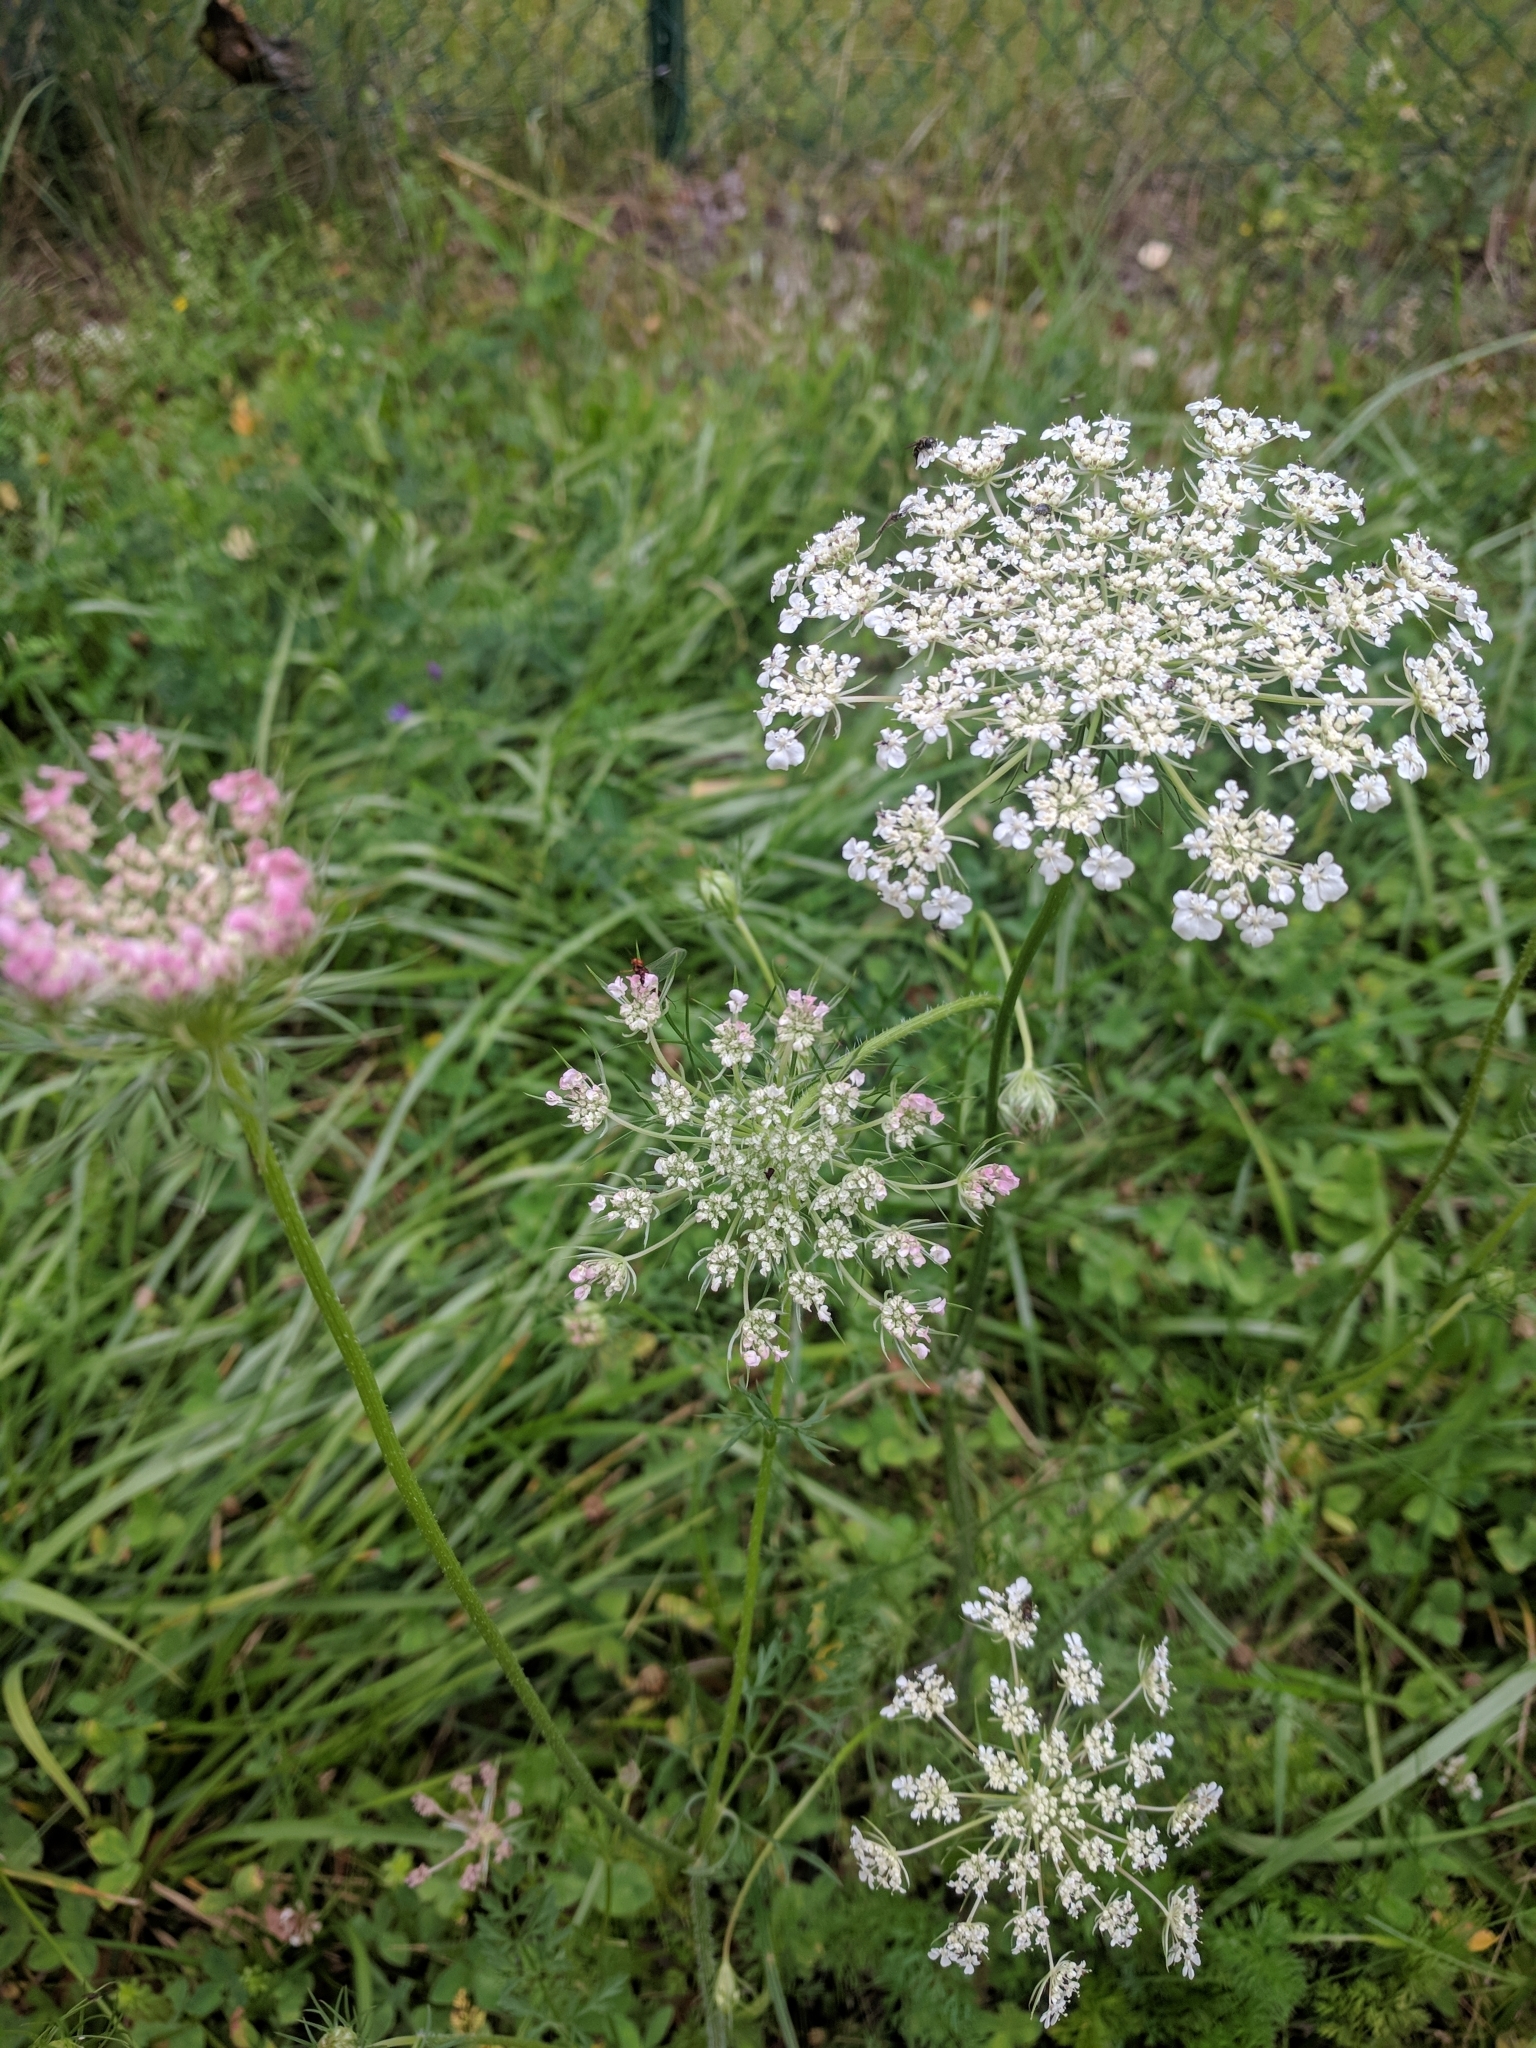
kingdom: Plantae
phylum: Tracheophyta
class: Magnoliopsida
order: Apiales
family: Apiaceae
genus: Daucus
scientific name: Daucus carota
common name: Wild carrot
